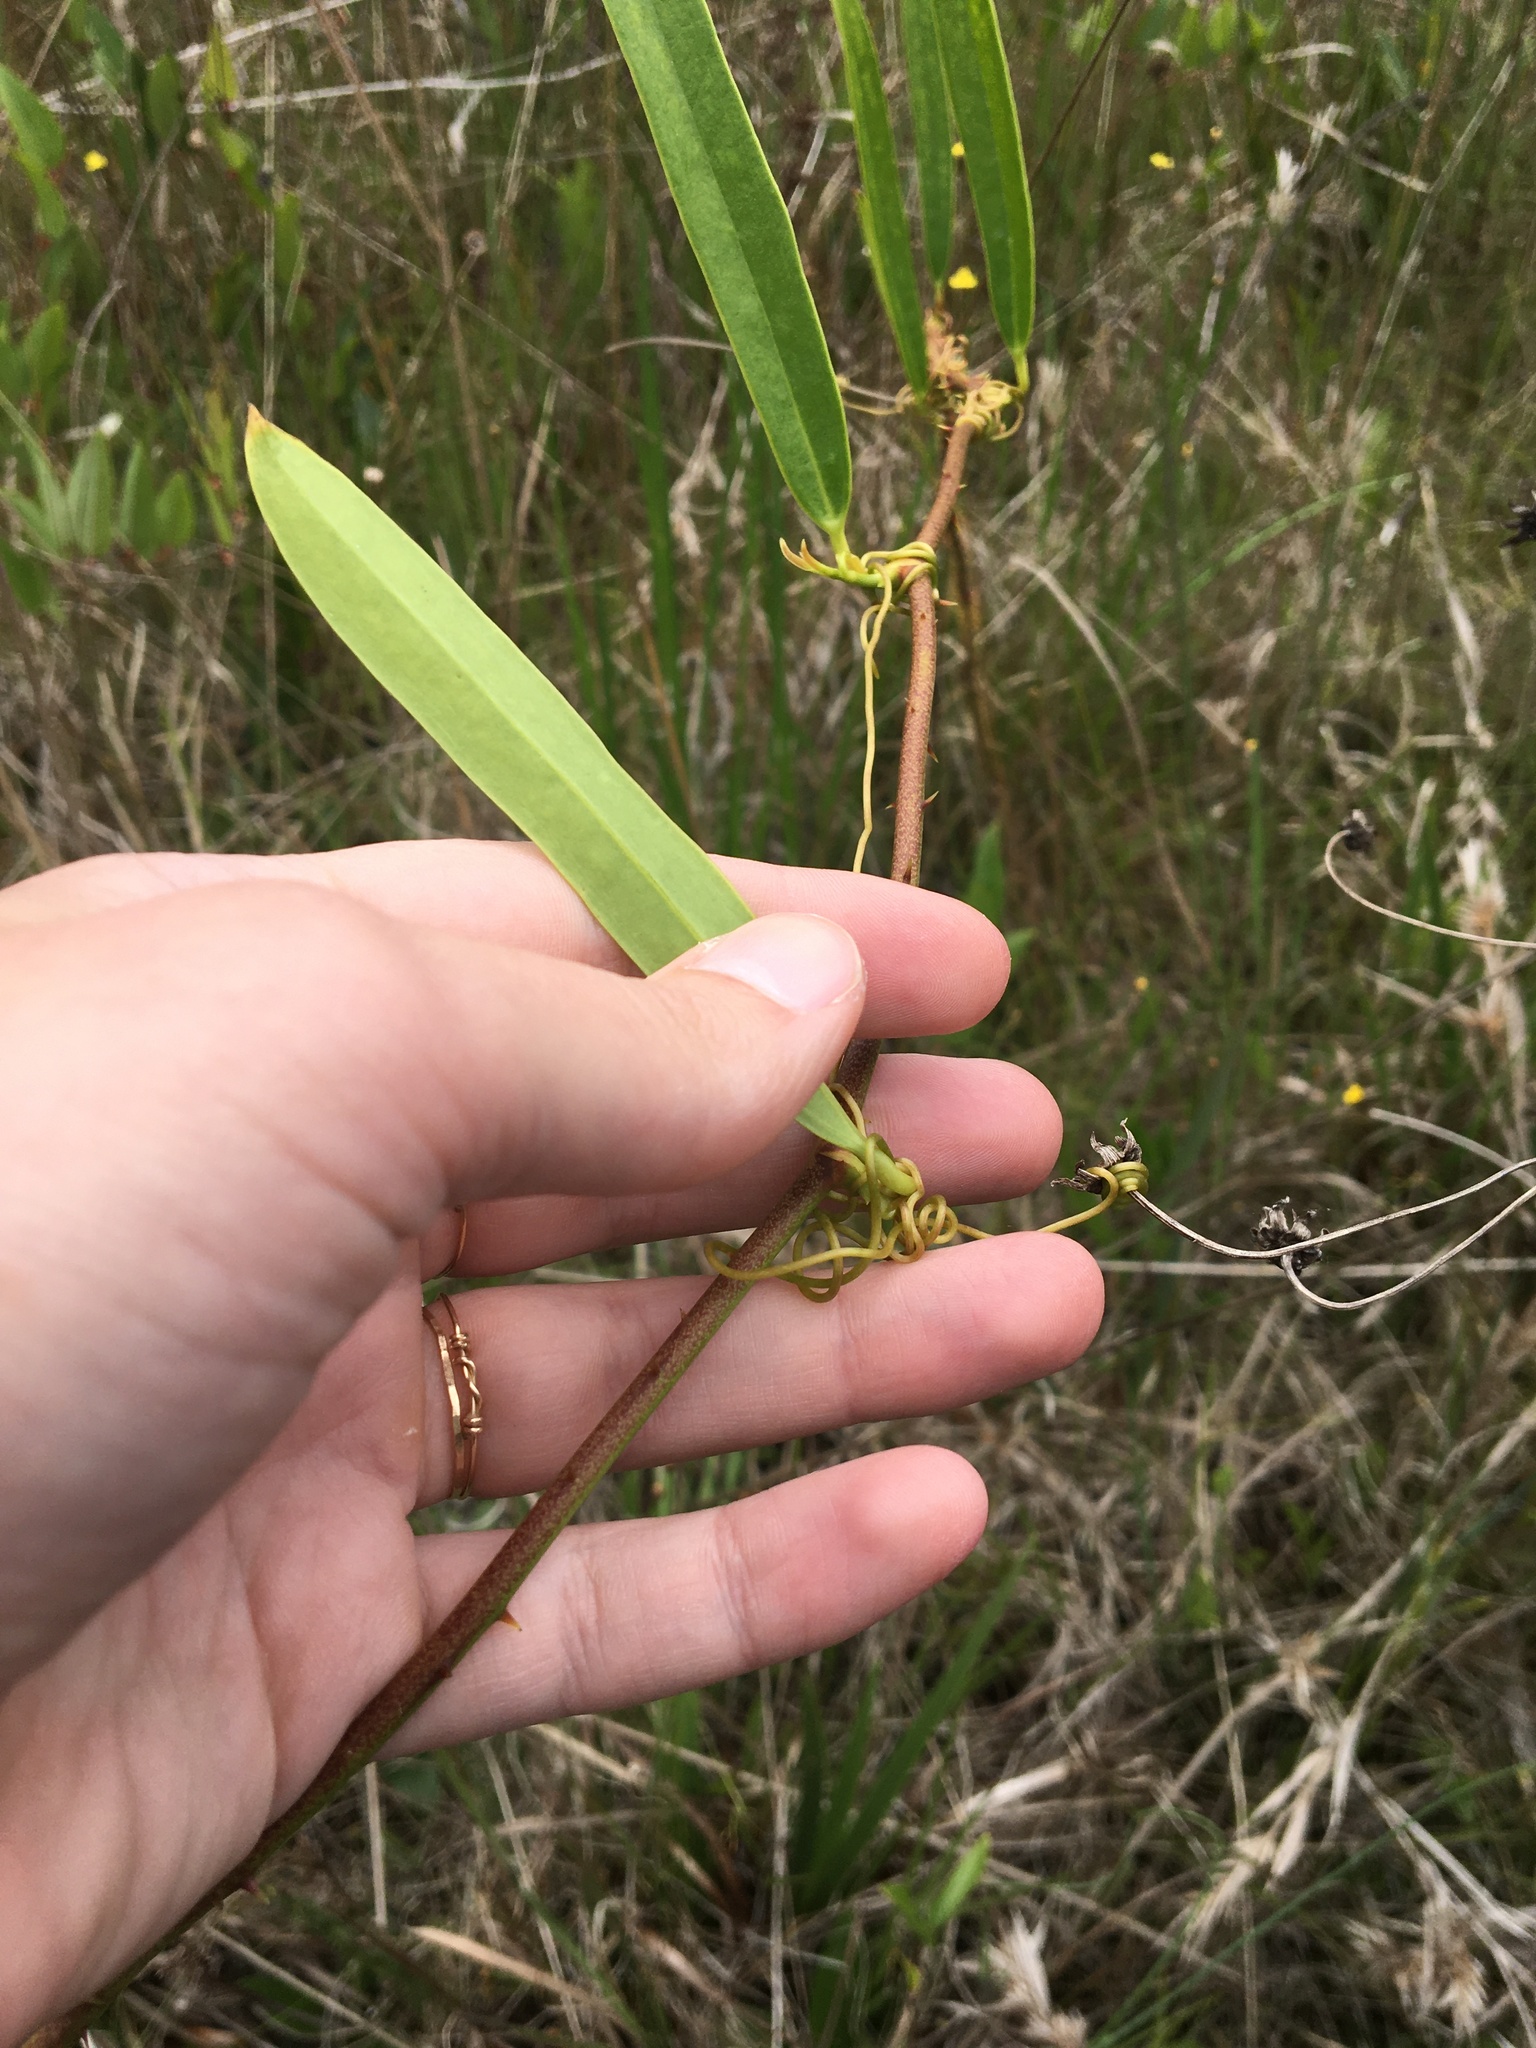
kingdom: Plantae
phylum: Tracheophyta
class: Liliopsida
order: Liliales
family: Smilacaceae
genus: Smilax
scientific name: Smilax laurifolia
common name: Bamboovine
